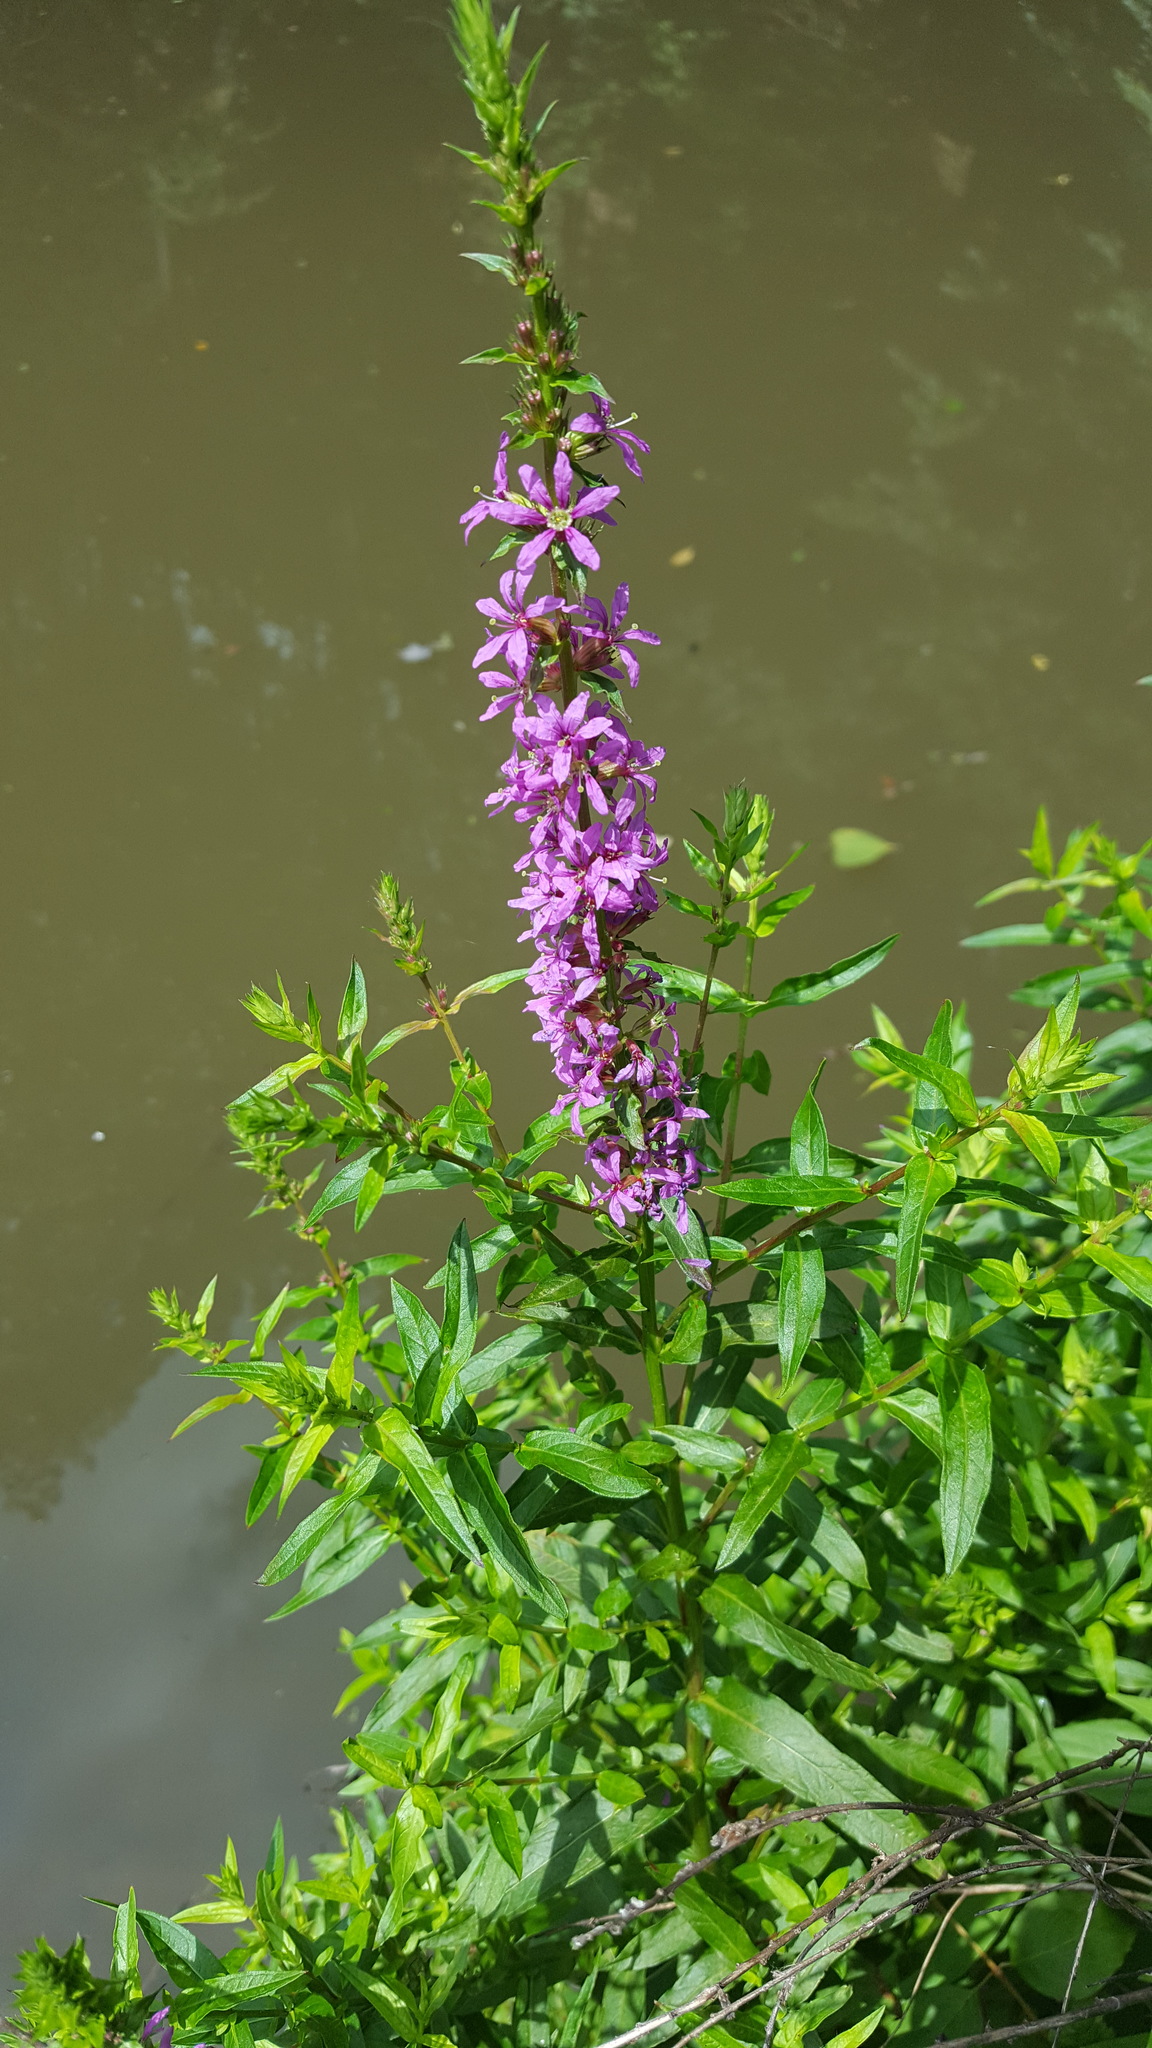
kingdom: Plantae
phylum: Tracheophyta
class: Magnoliopsida
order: Myrtales
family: Lythraceae
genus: Lythrum
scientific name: Lythrum salicaria
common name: Purple loosestrife
